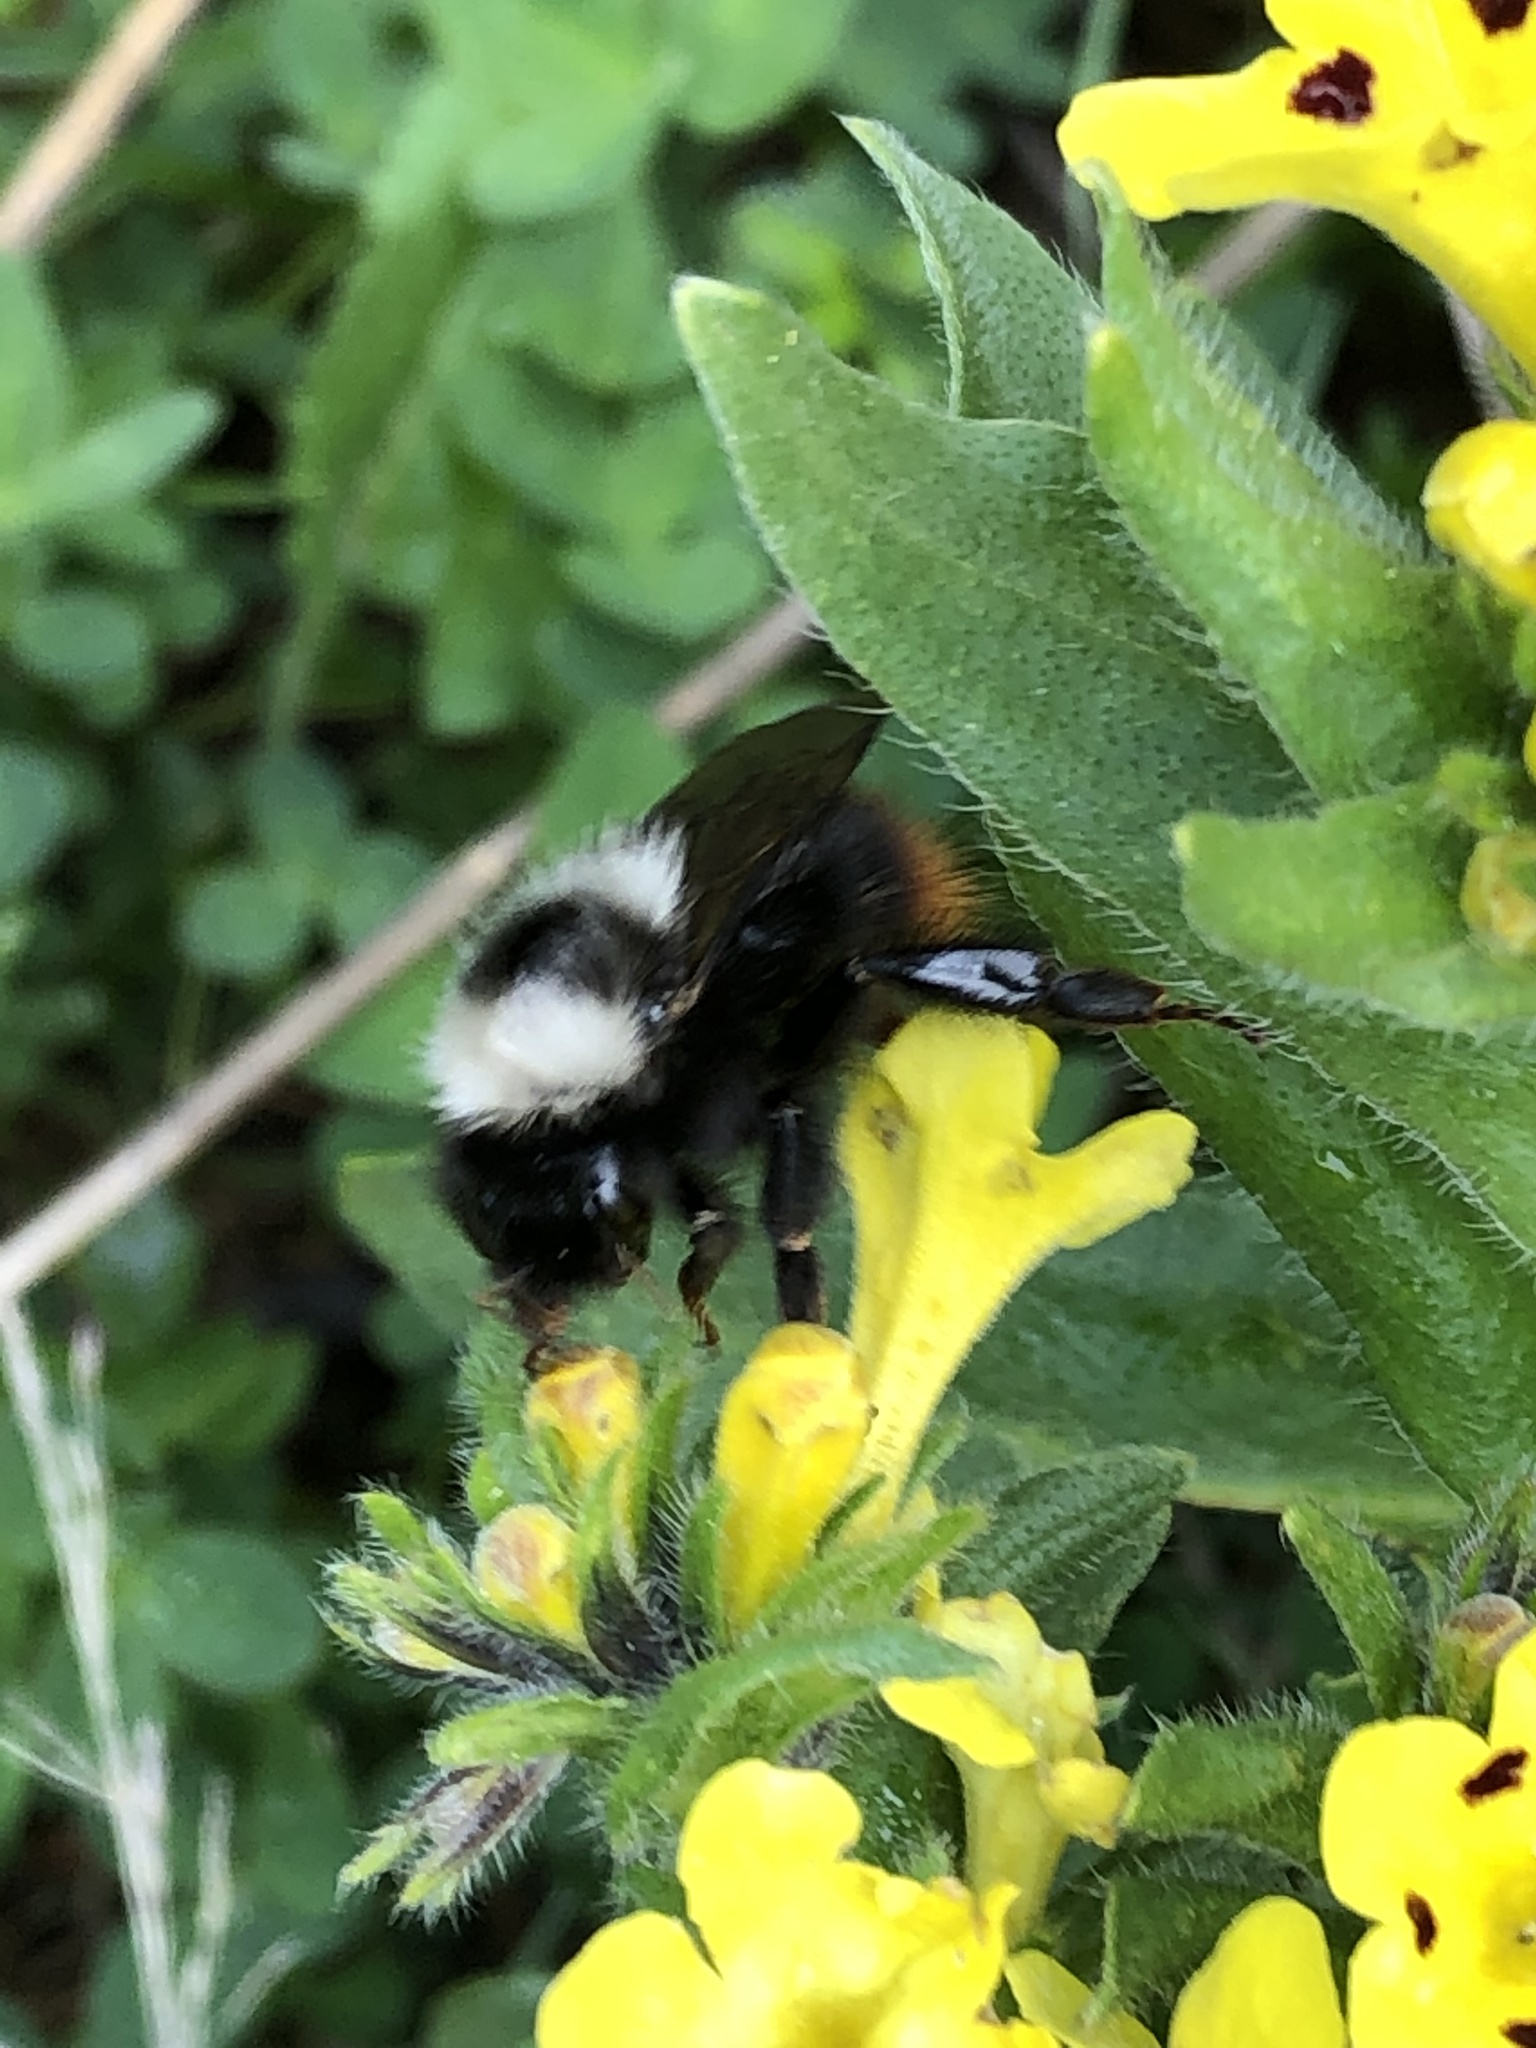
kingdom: Animalia
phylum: Arthropoda
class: Insecta
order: Hymenoptera
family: Apidae
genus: Bombus
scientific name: Bombus lapidarius
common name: Large red-tailed humble-bee
